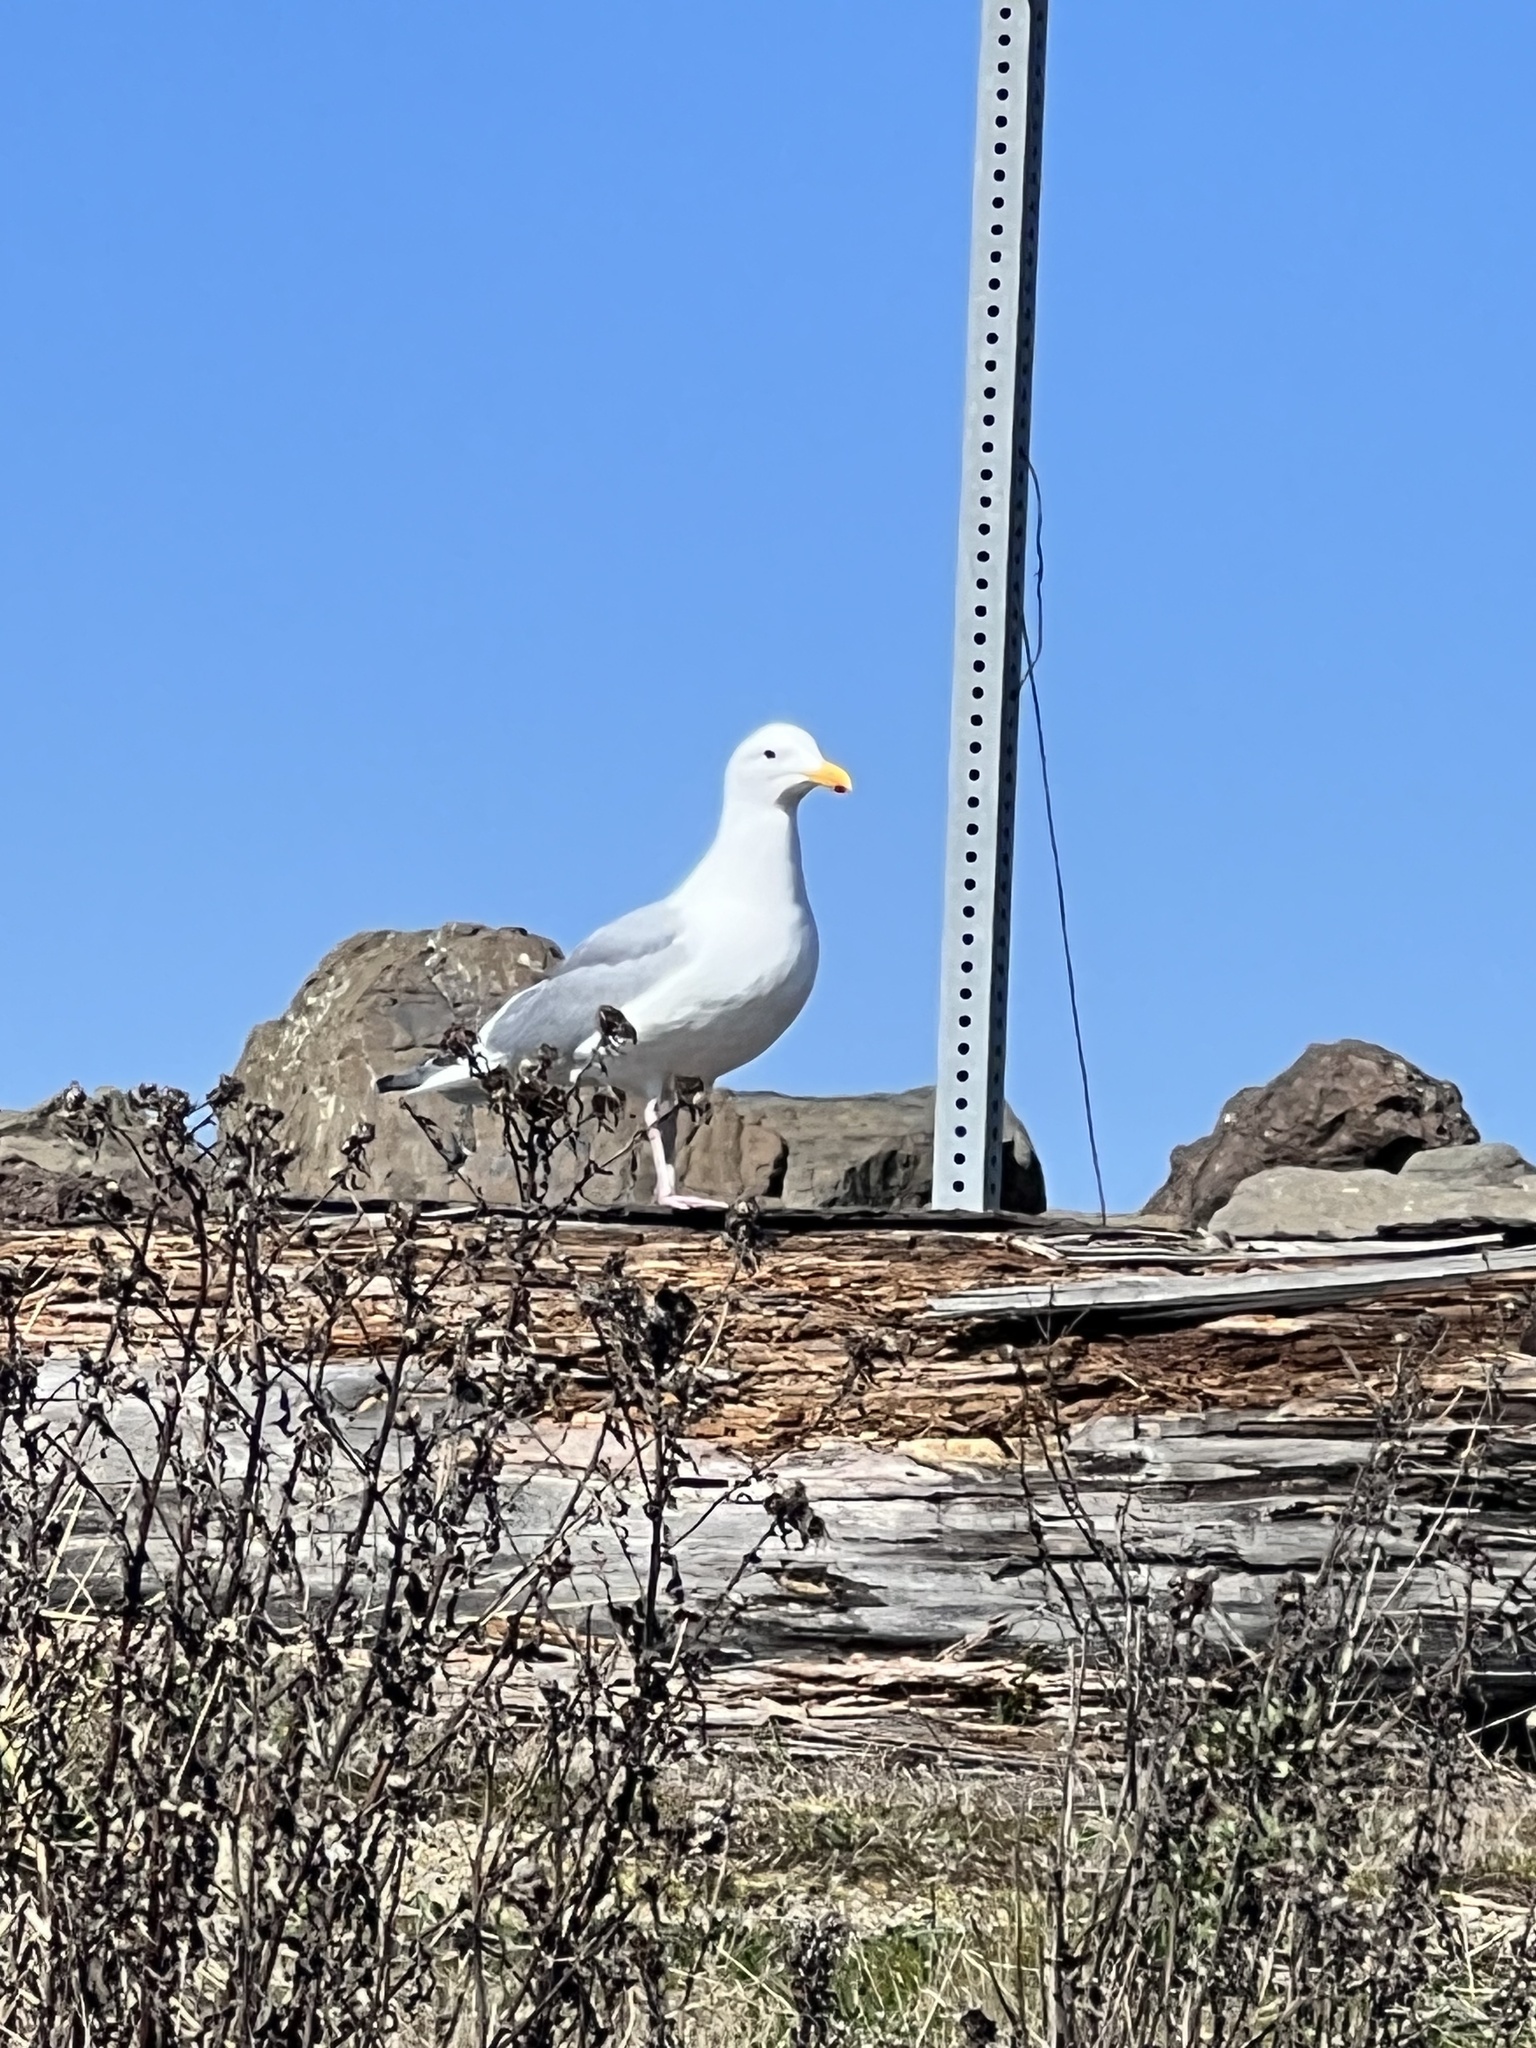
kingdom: Animalia
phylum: Chordata
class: Aves
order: Charadriiformes
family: Laridae
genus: Larus
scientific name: Larus glaucescens
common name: Glaucous-winged gull
